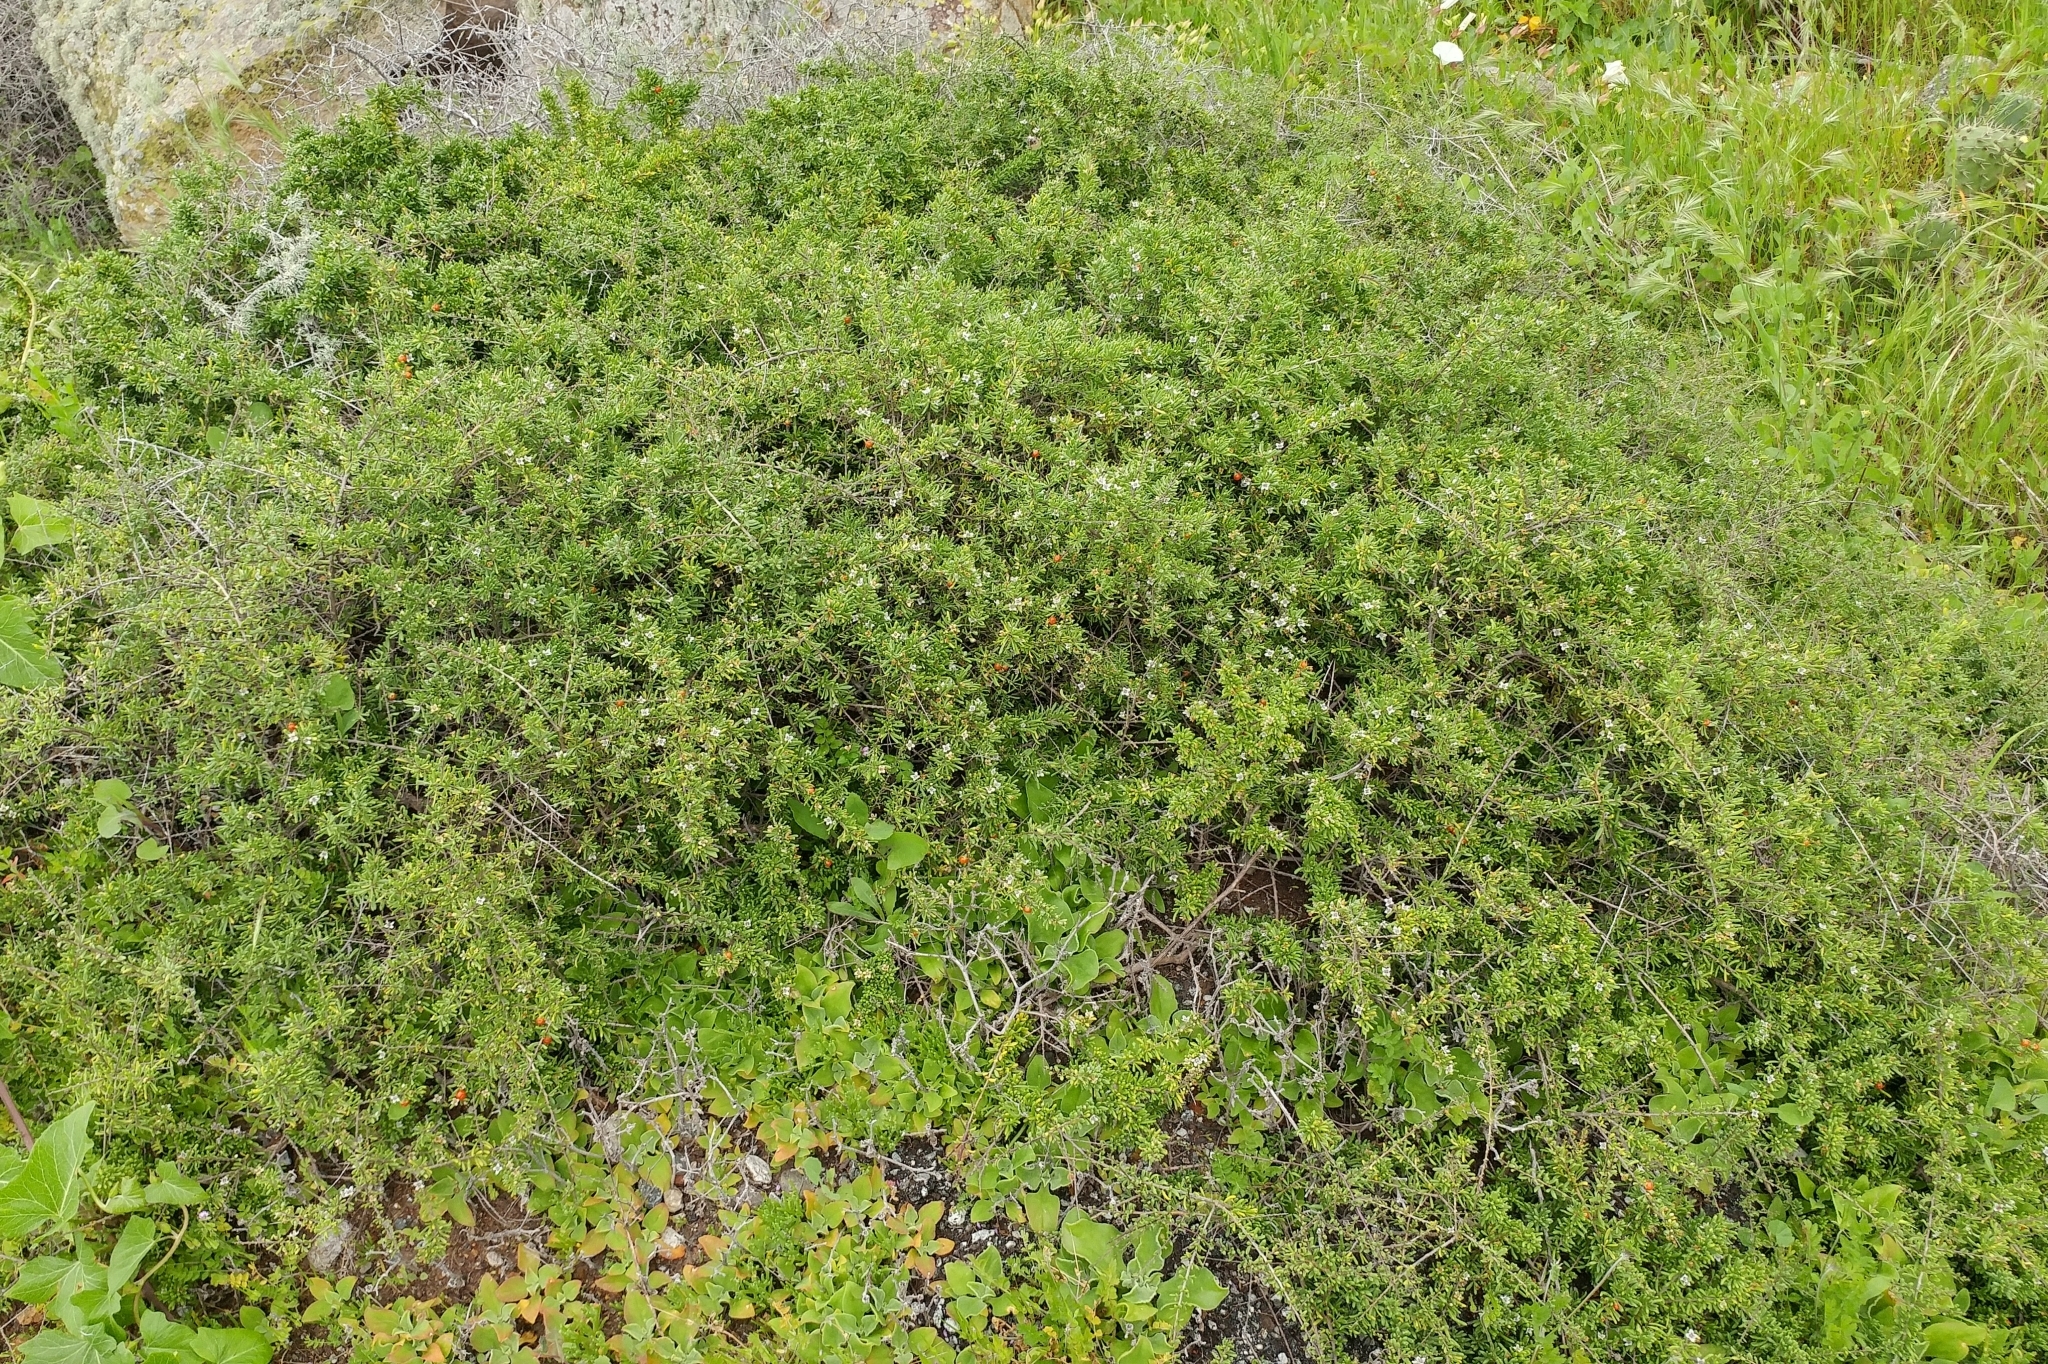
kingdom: Plantae
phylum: Tracheophyta
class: Magnoliopsida
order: Solanales
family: Solanaceae
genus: Lycium
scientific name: Lycium californicum
